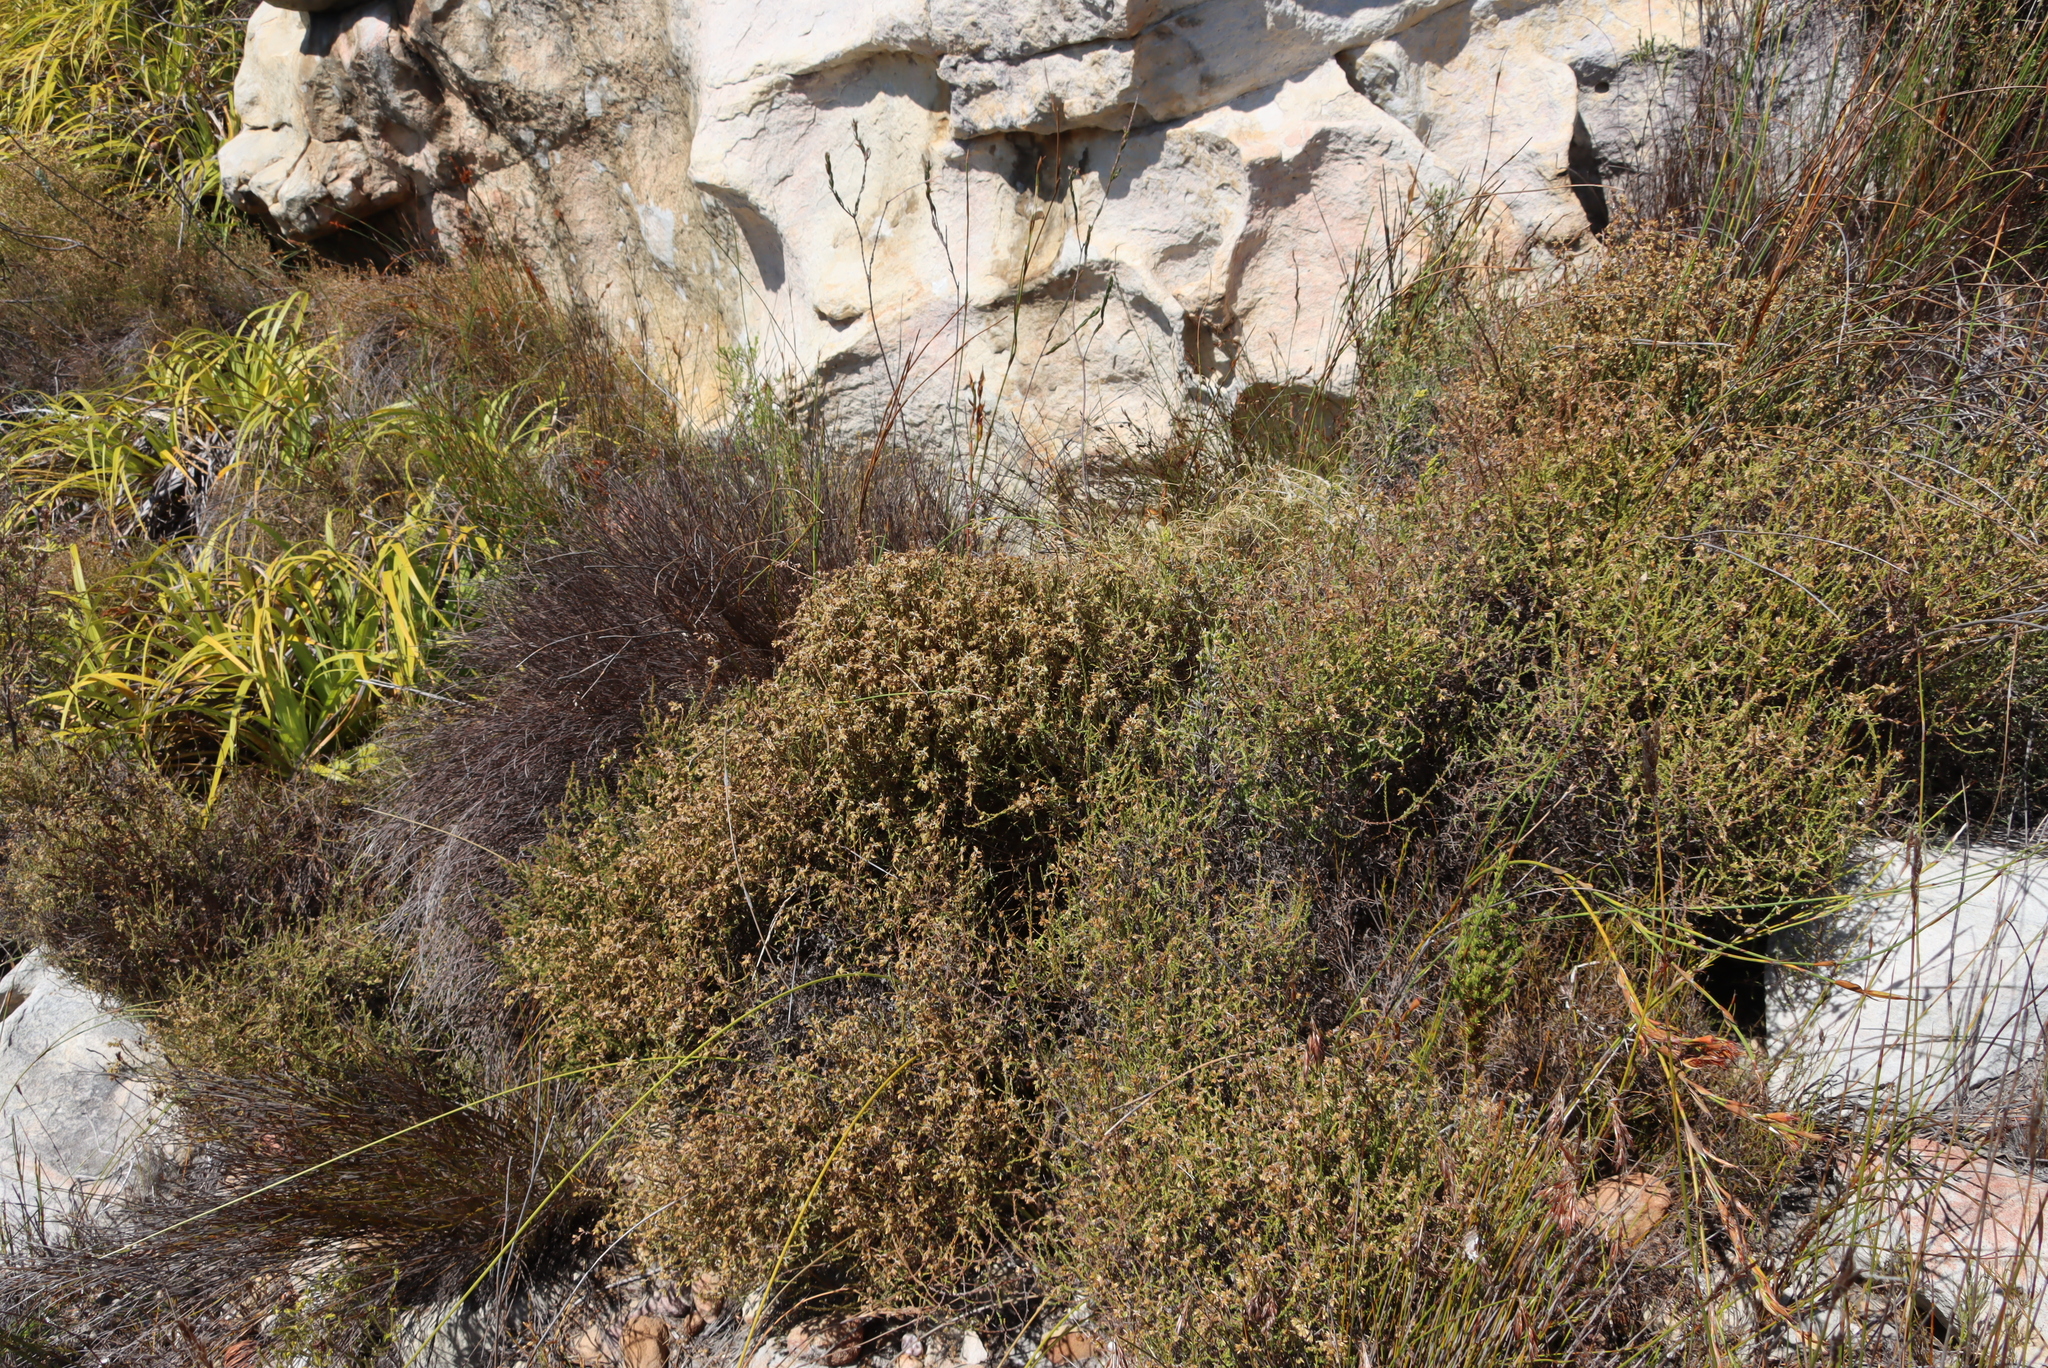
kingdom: Plantae
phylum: Tracheophyta
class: Magnoliopsida
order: Asterales
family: Asteraceae
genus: Myrovernix
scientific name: Myrovernix scaber
